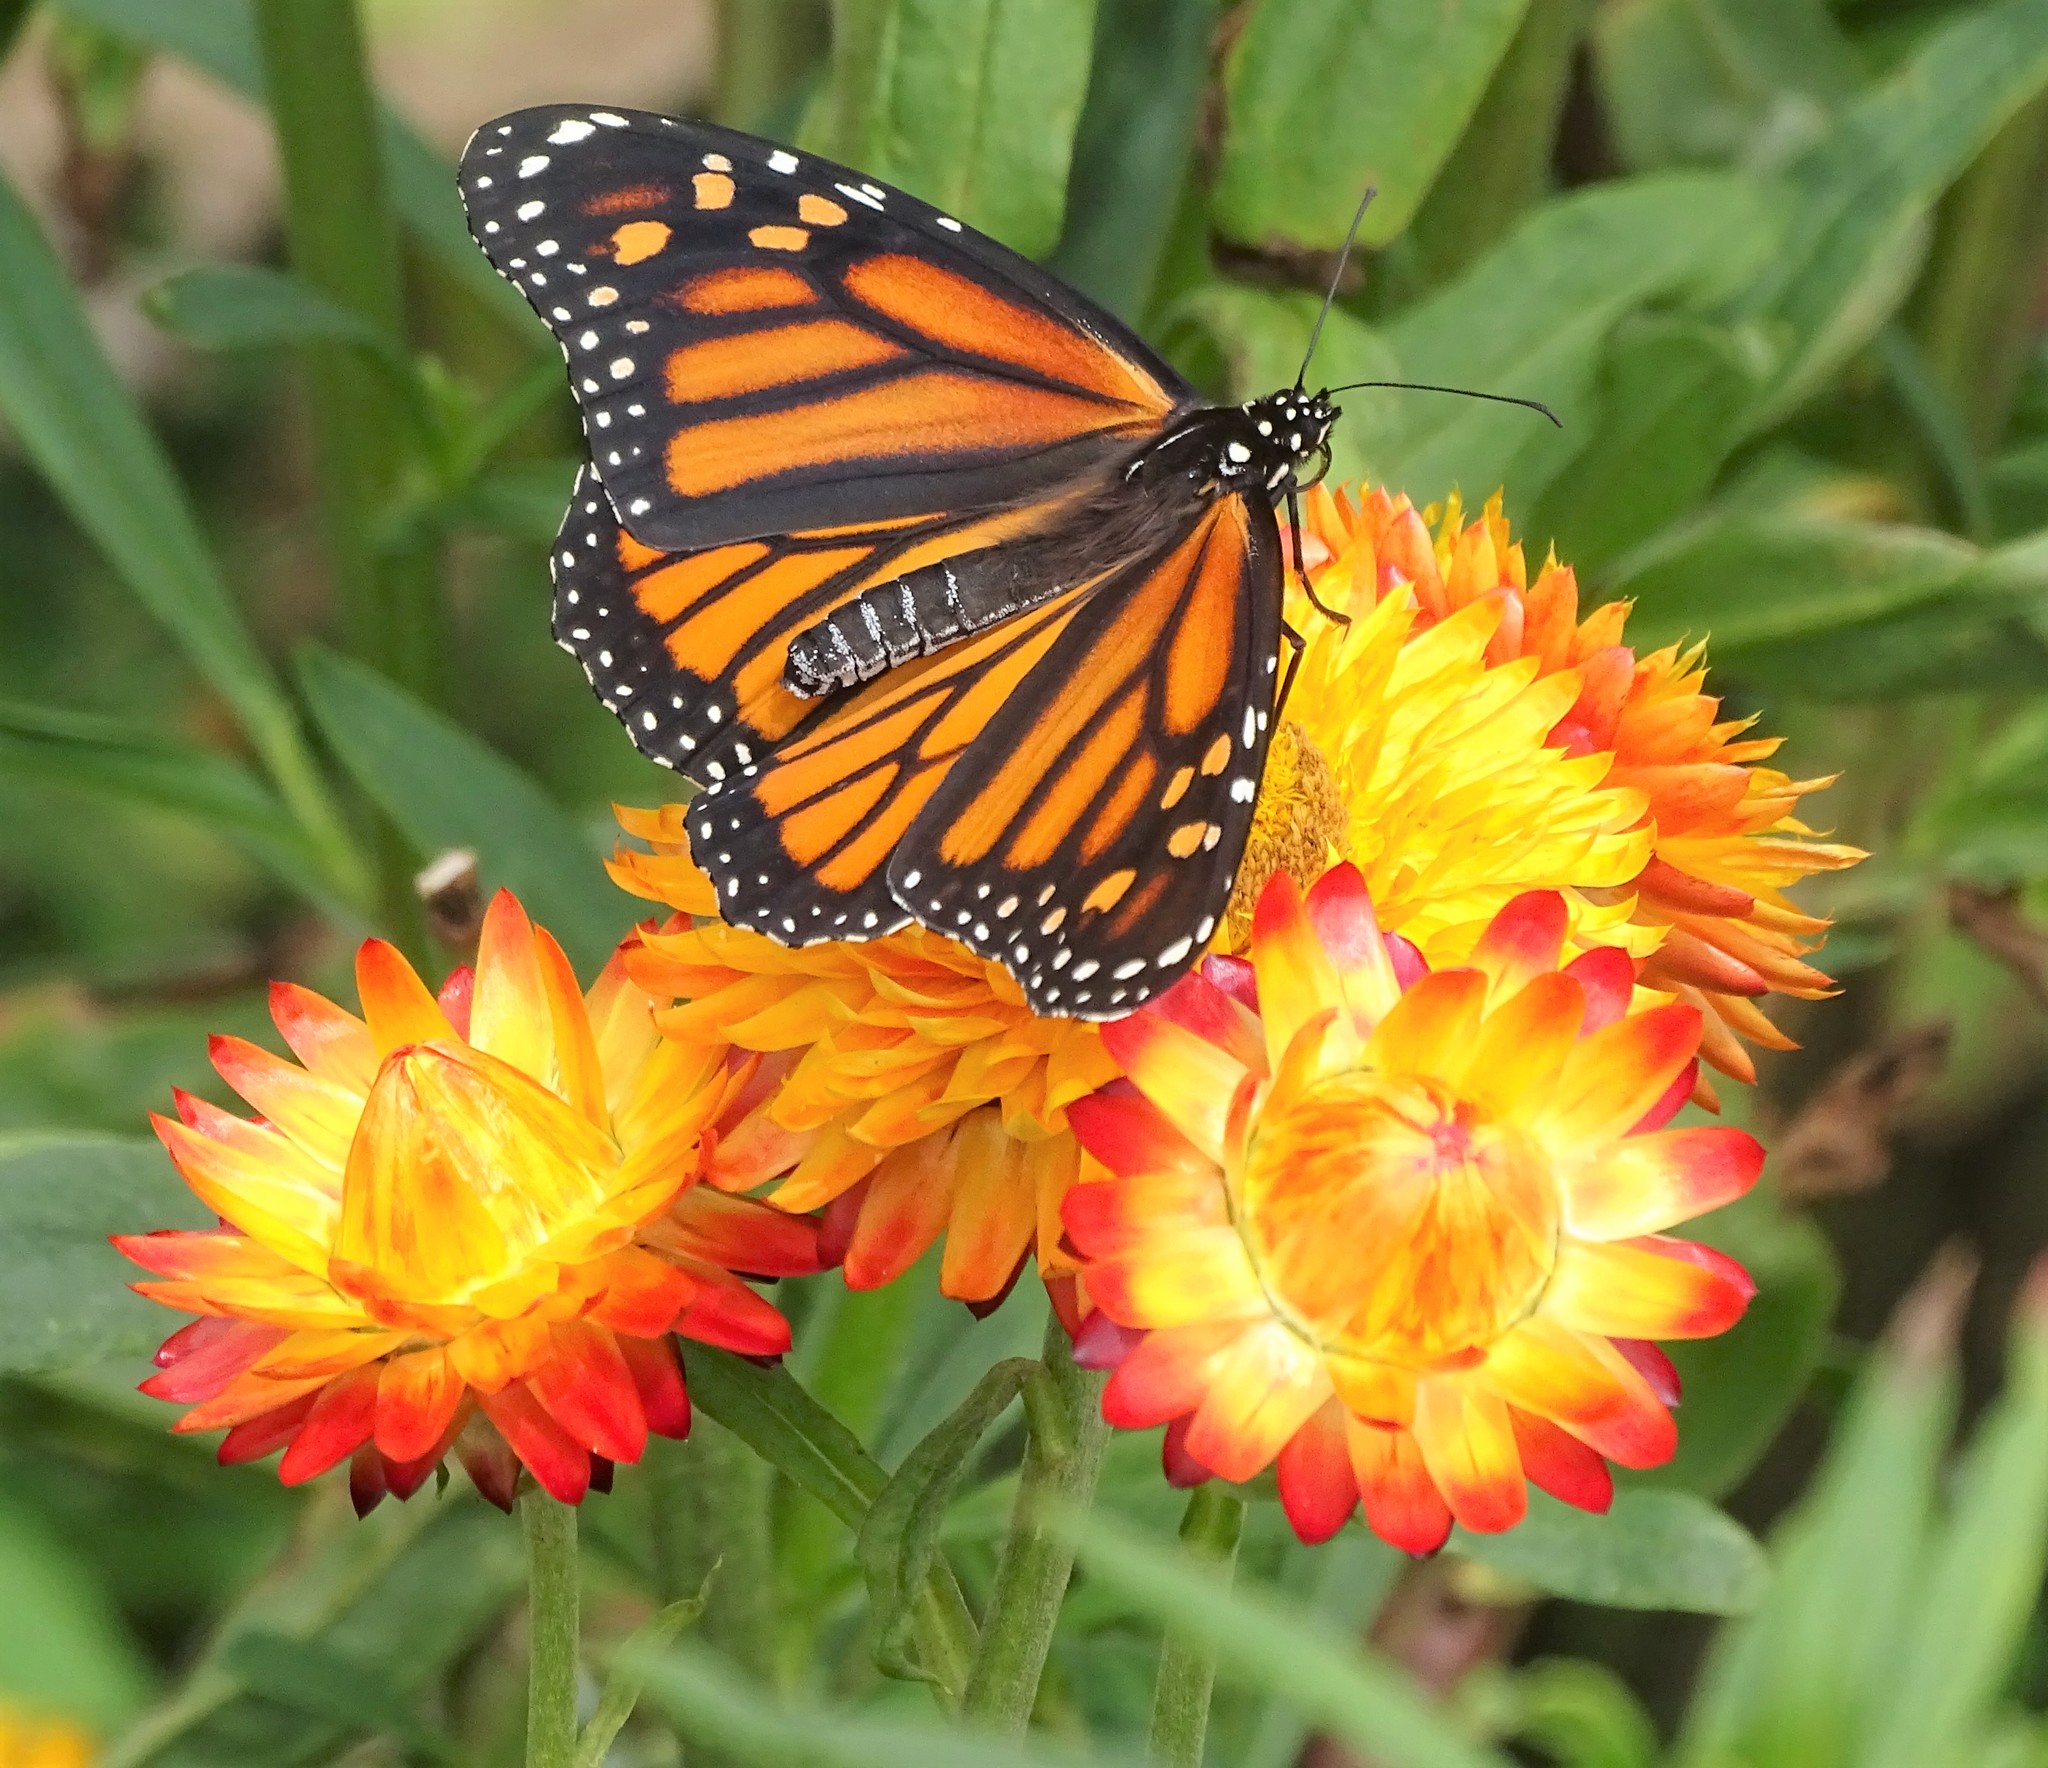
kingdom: Animalia
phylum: Arthropoda
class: Insecta
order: Lepidoptera
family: Nymphalidae
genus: Danaus
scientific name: Danaus plexippus
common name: Monarch
